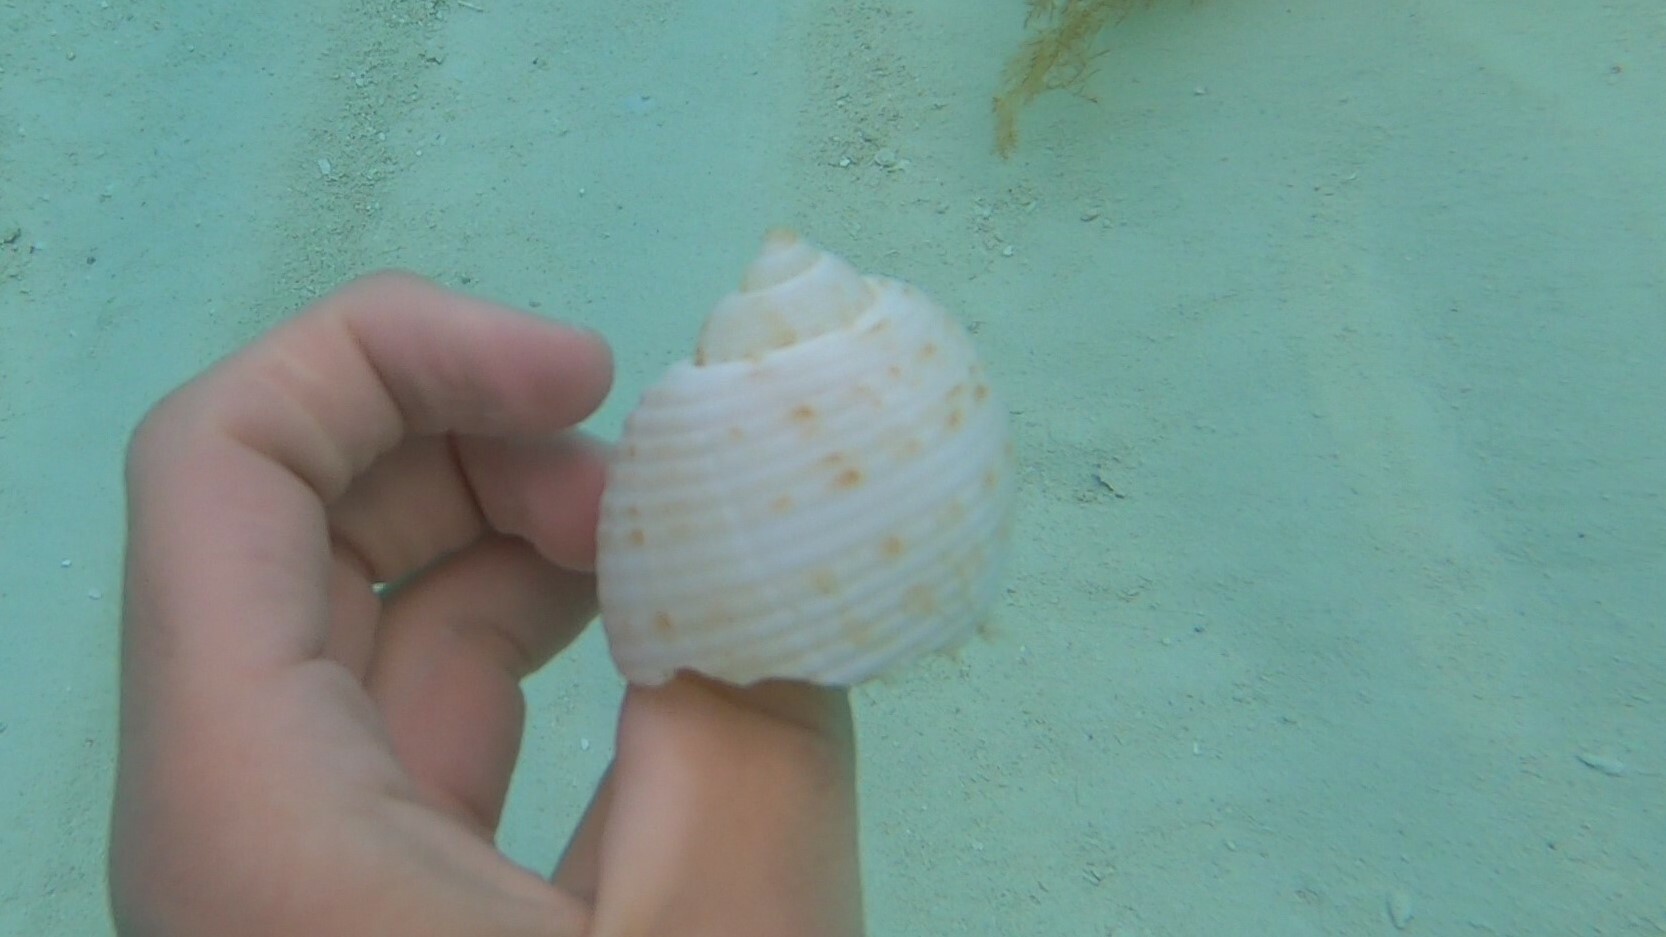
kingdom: Animalia
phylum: Mollusca
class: Gastropoda
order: Littorinimorpha
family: Tonnidae
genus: Tonna
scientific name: Tonna pennata
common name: Atlantic partridge tun
